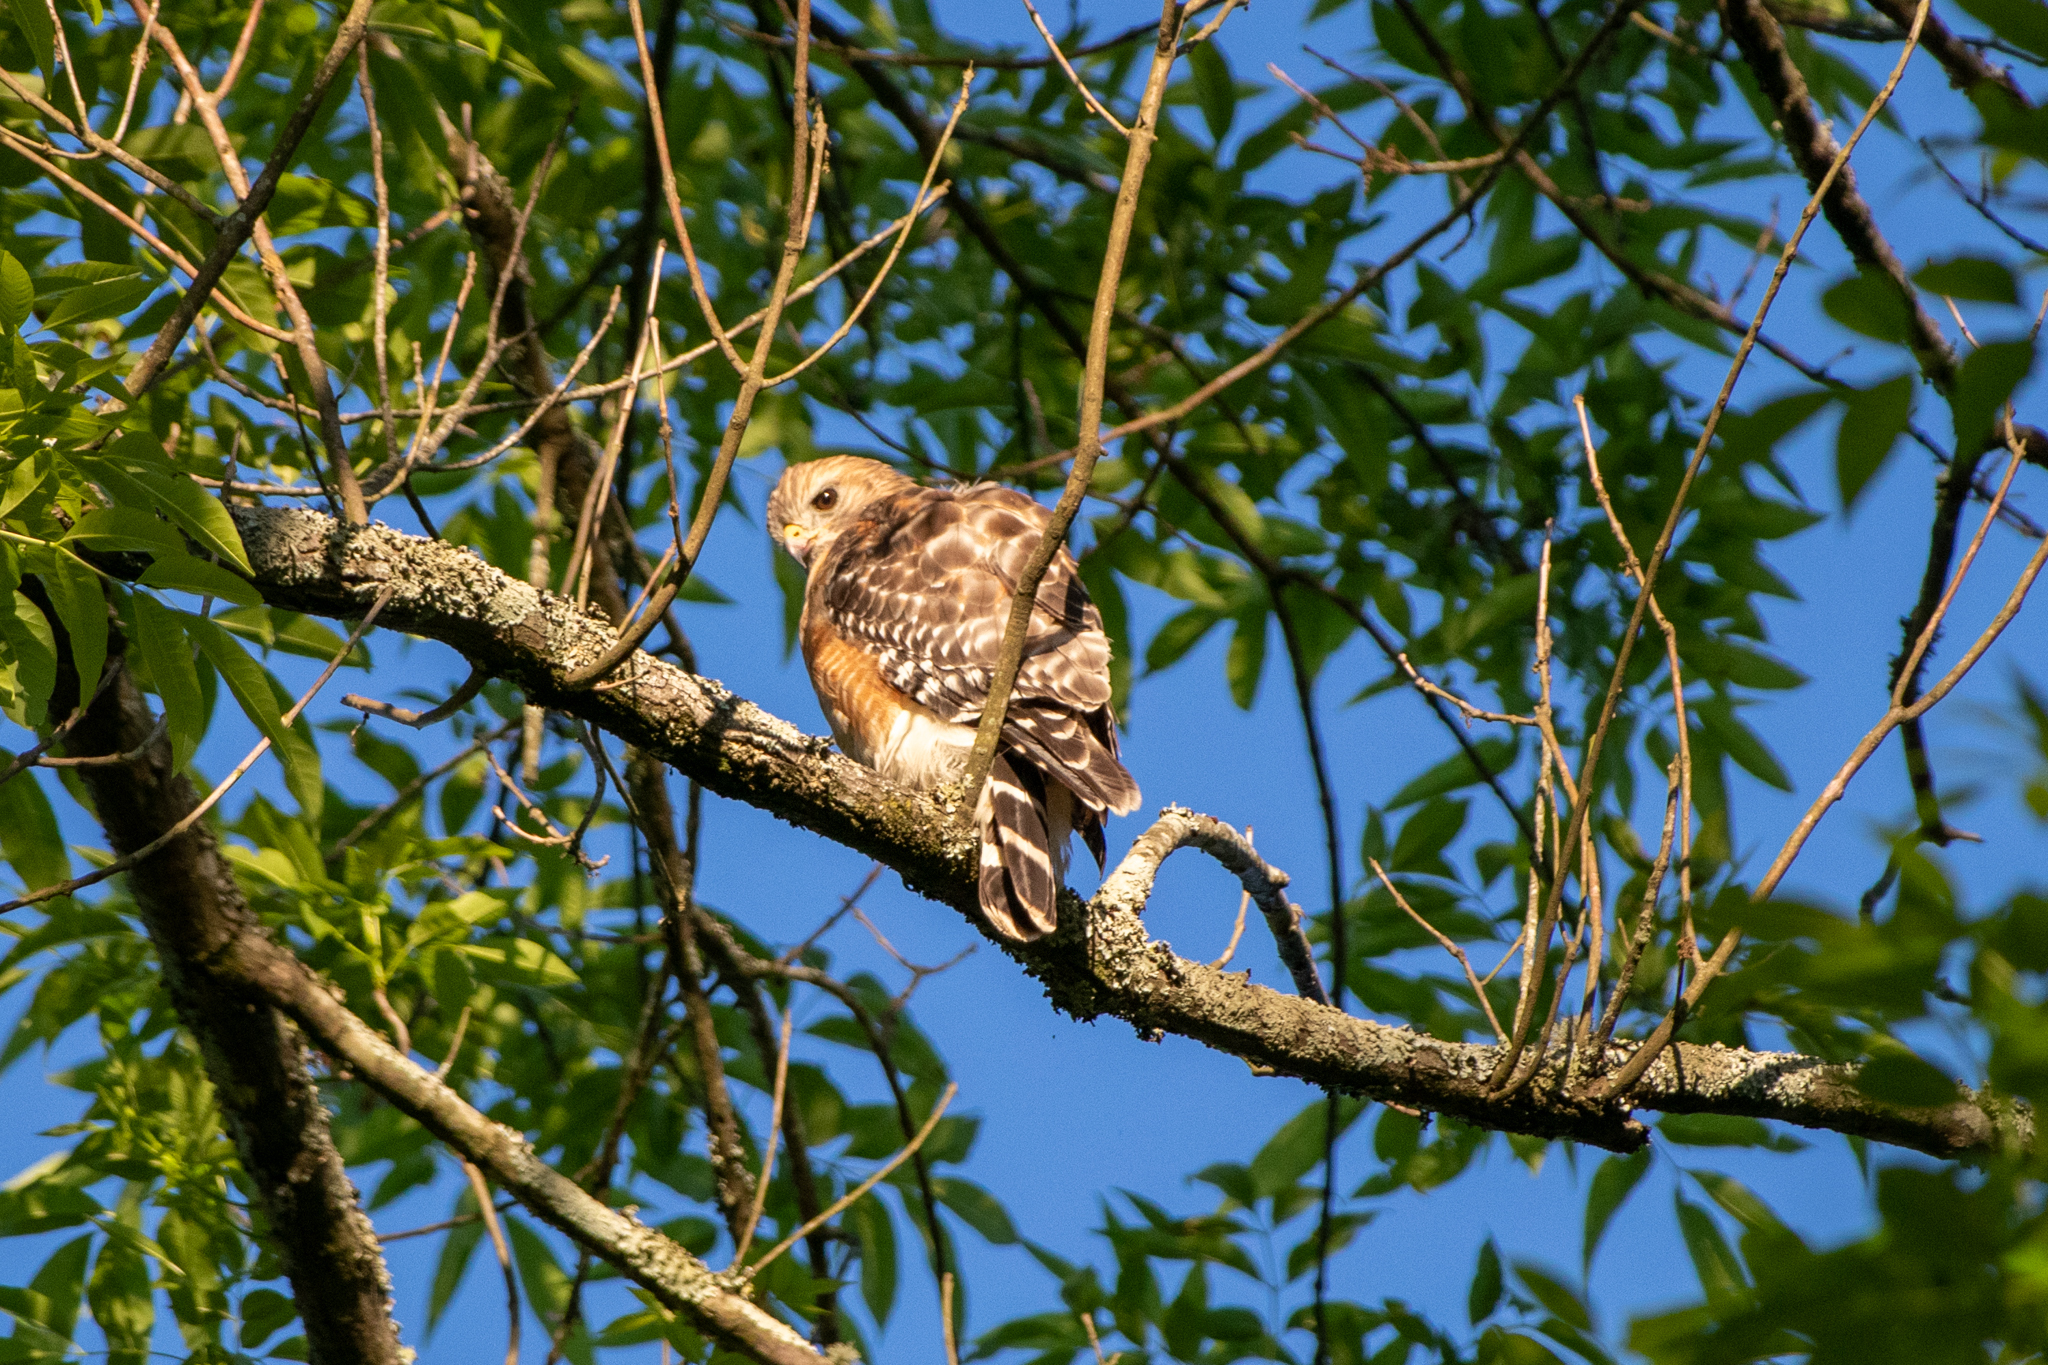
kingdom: Animalia
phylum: Chordata
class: Aves
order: Accipitriformes
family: Accipitridae
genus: Buteo
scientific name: Buteo lineatus
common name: Red-shouldered hawk
